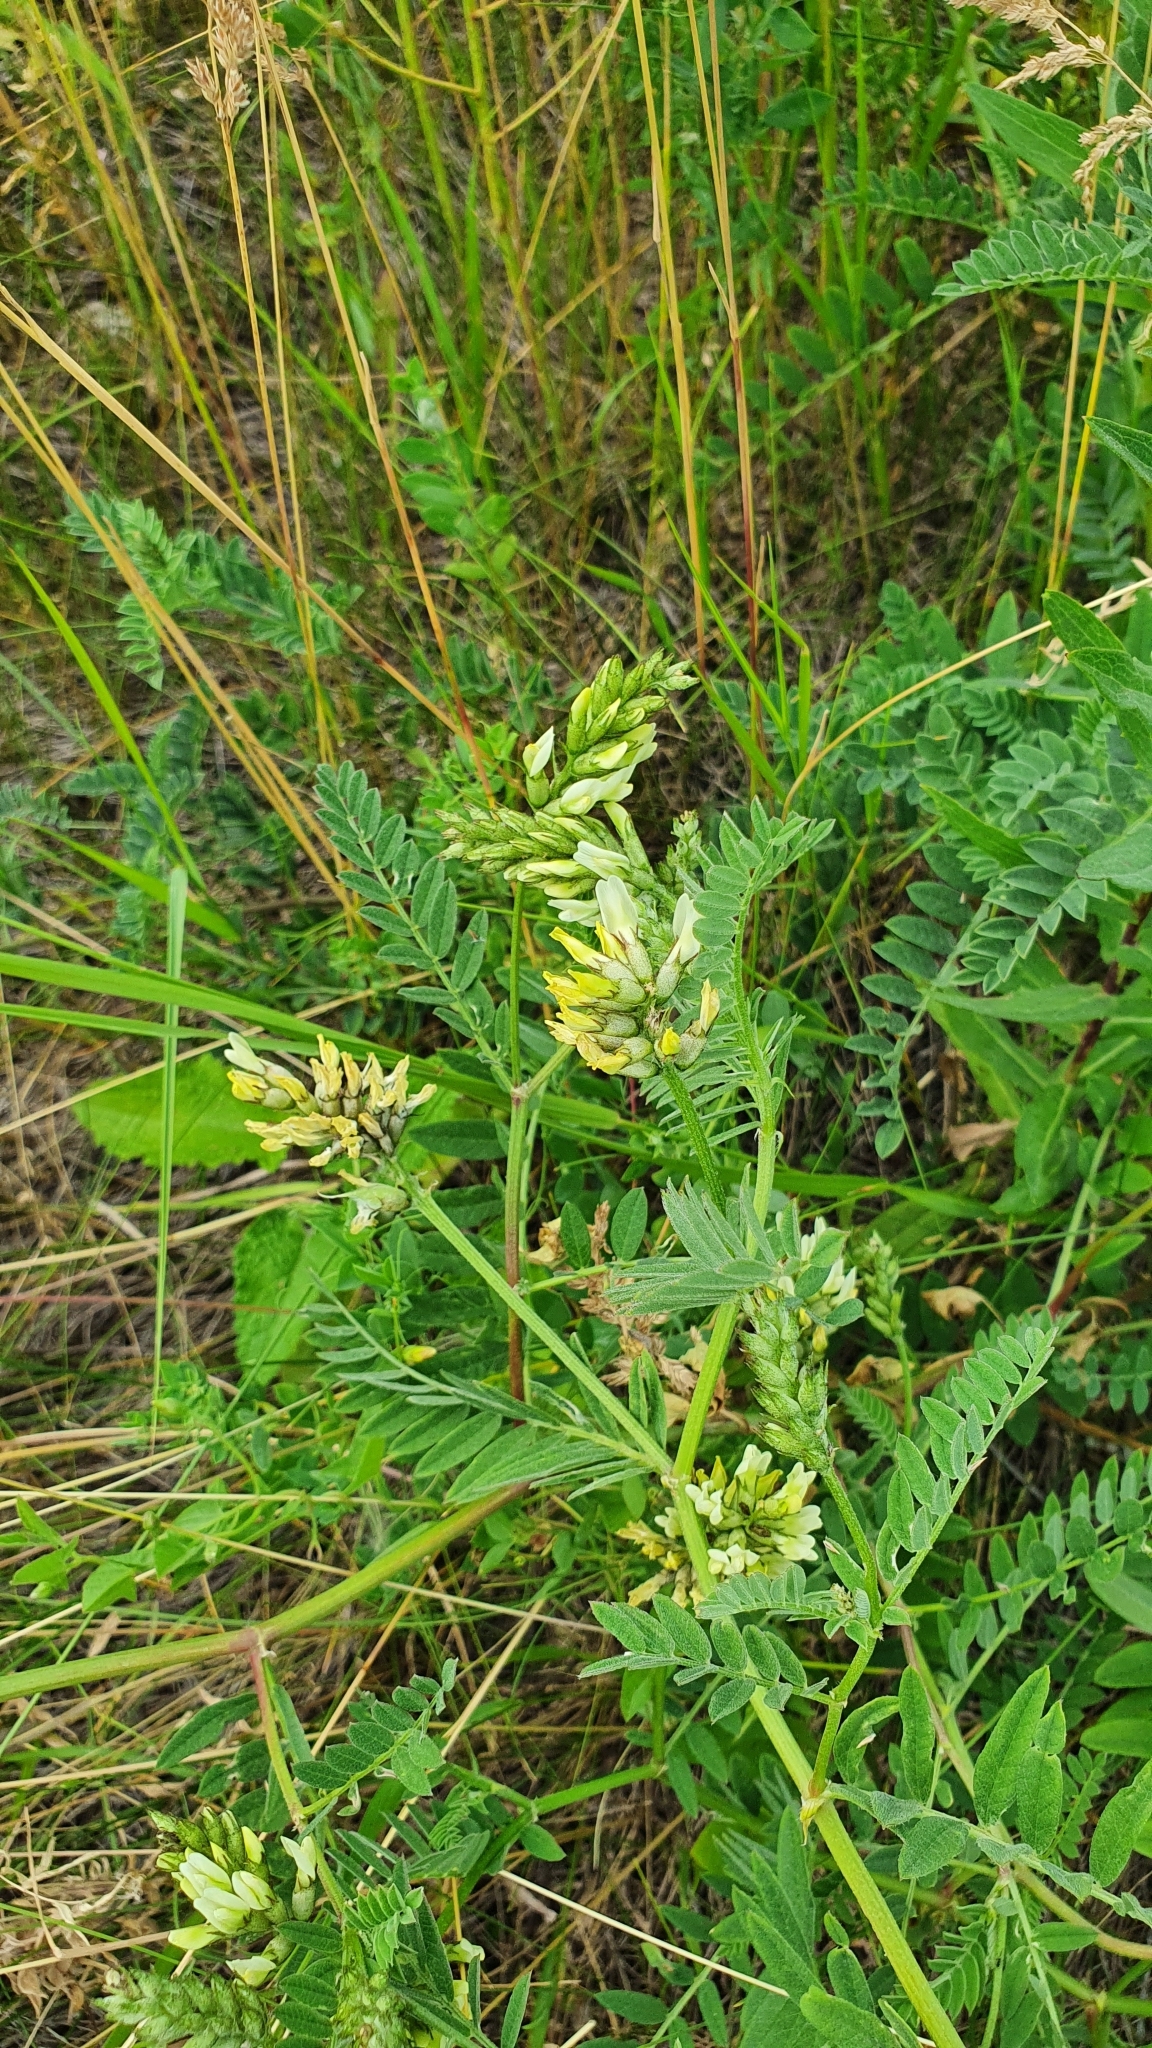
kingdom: Plantae
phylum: Tracheophyta
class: Magnoliopsida
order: Fabales
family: Fabaceae
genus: Astragalus
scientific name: Astragalus cicer
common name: Chick-pea milk-vetch
